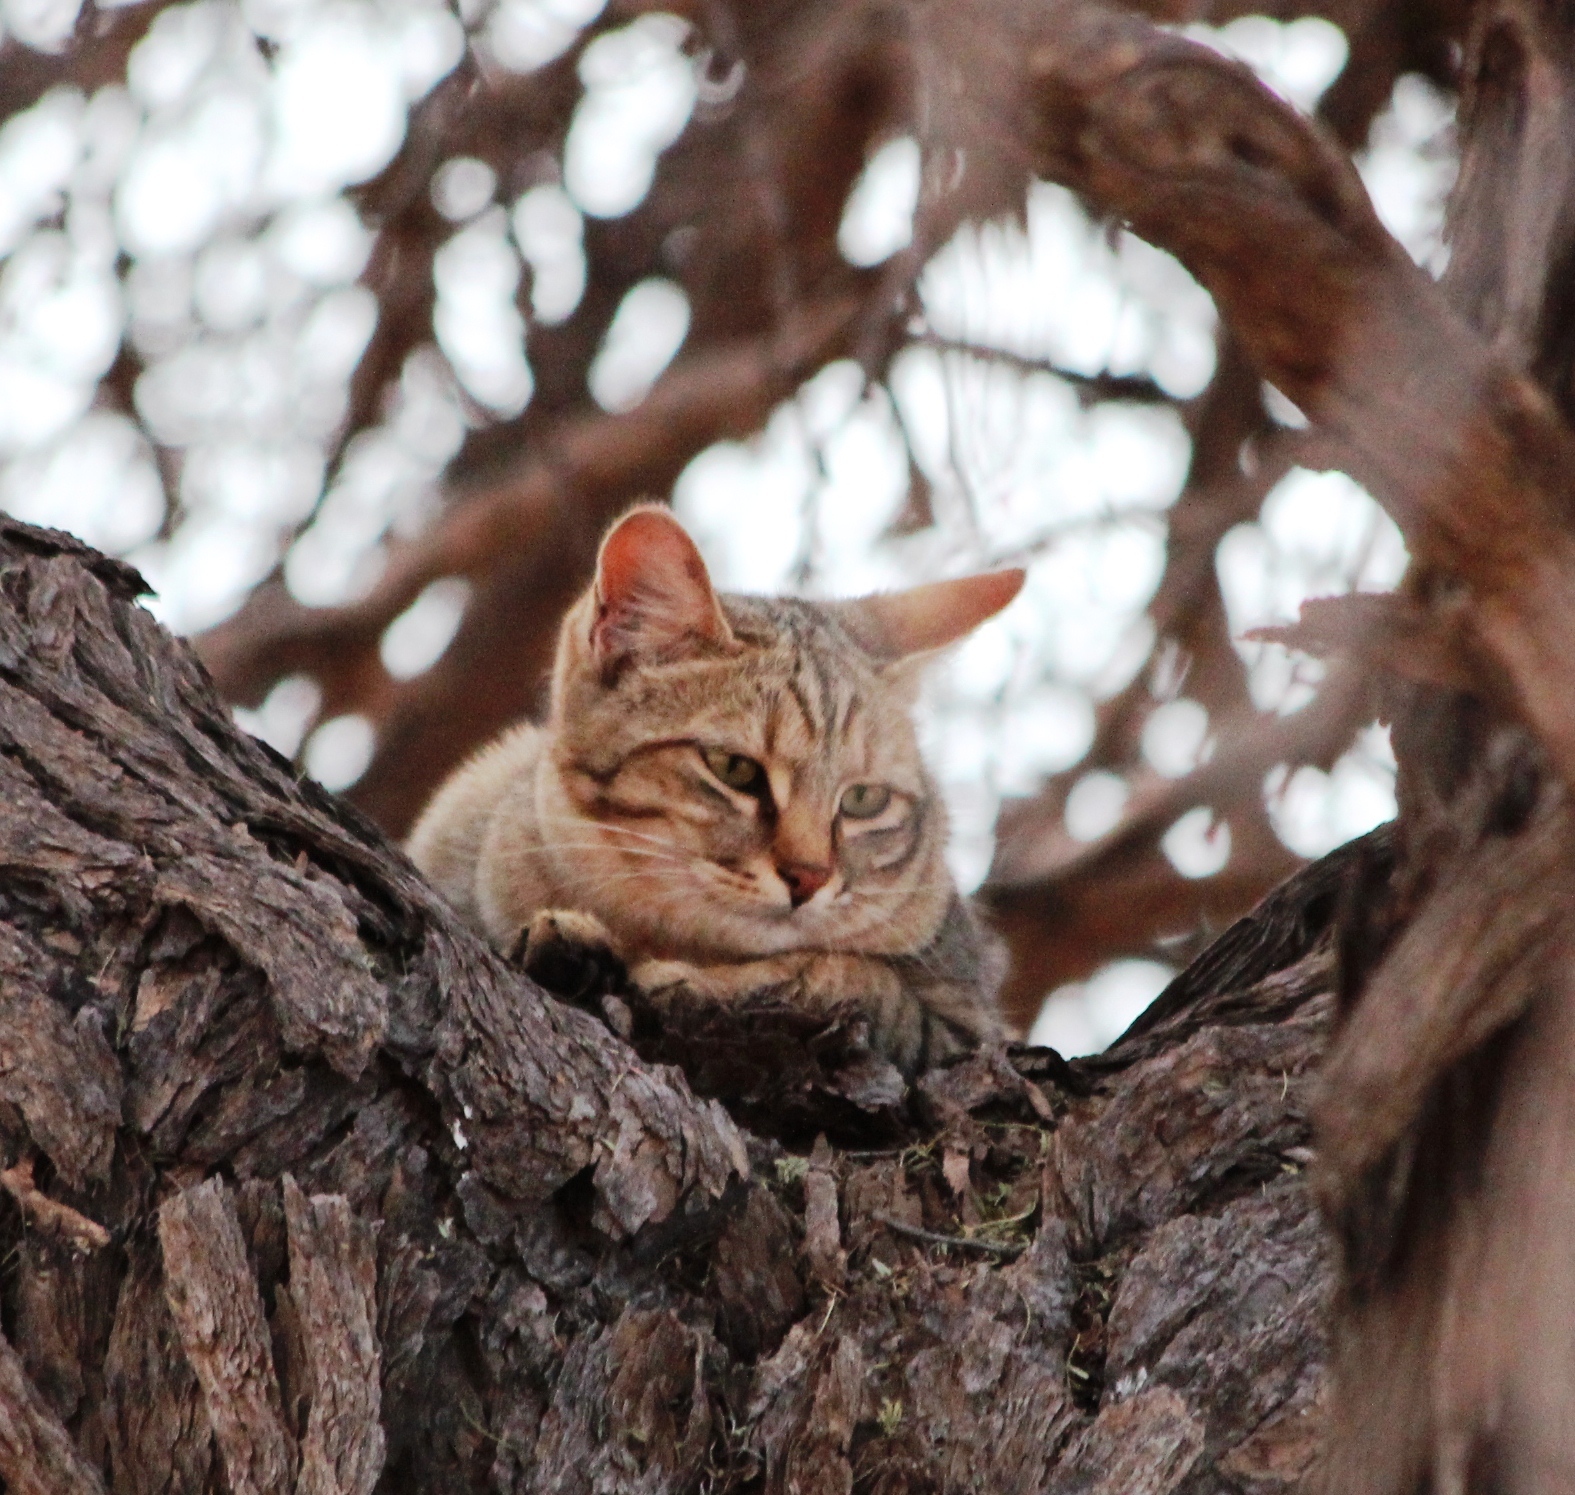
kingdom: Animalia
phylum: Chordata
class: Mammalia
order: Carnivora
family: Felidae
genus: Felis
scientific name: Felis silvestris
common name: Wildcat
